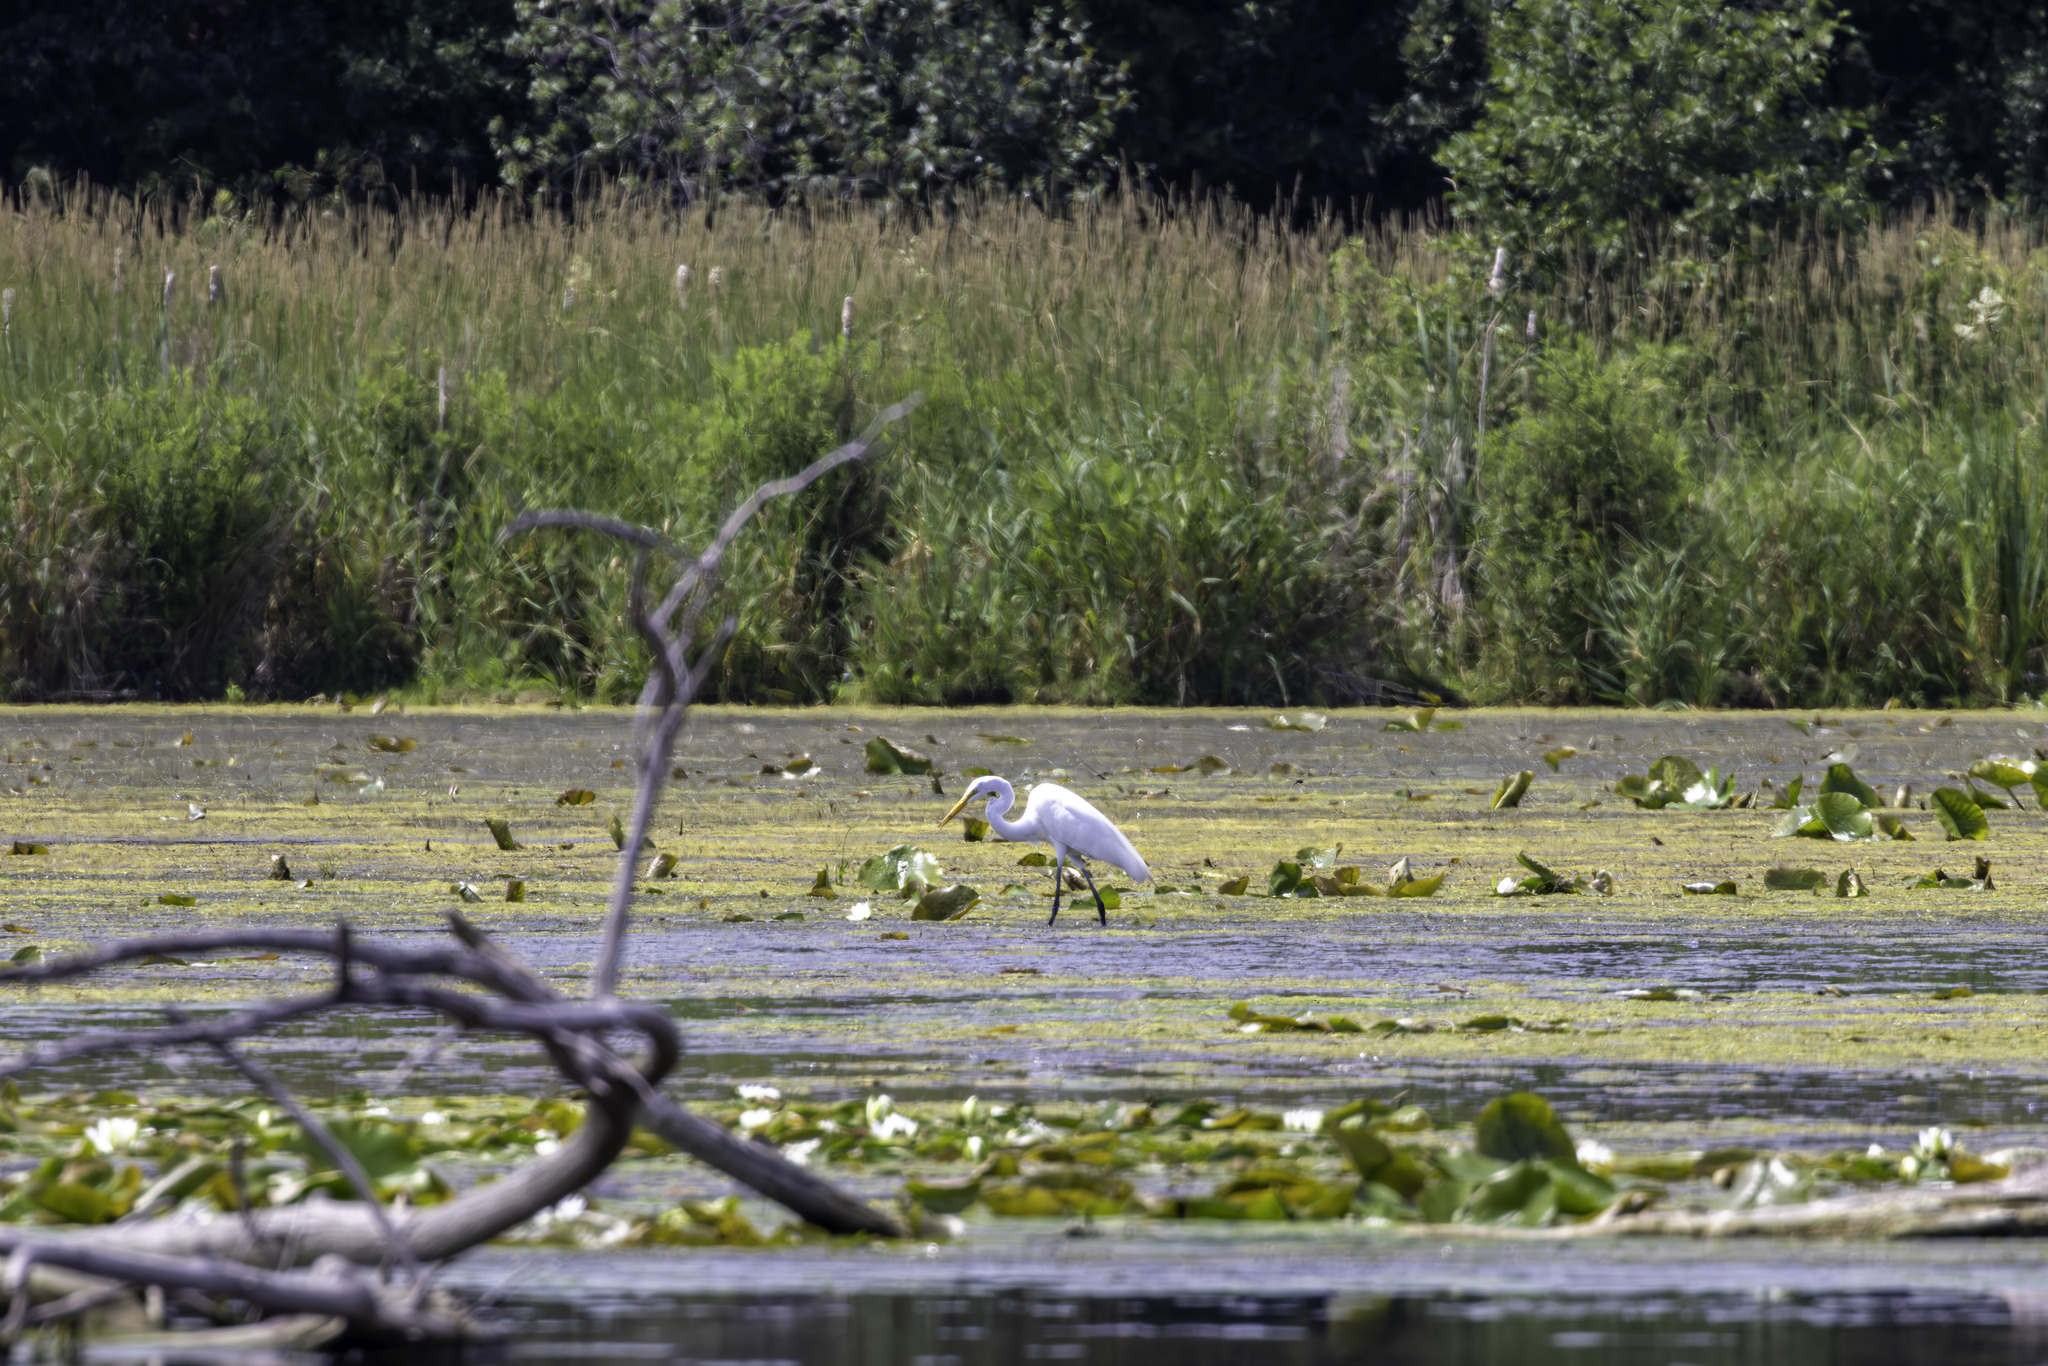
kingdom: Animalia
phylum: Chordata
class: Aves
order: Pelecaniformes
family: Ardeidae
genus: Ardea
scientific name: Ardea alba
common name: Great egret
